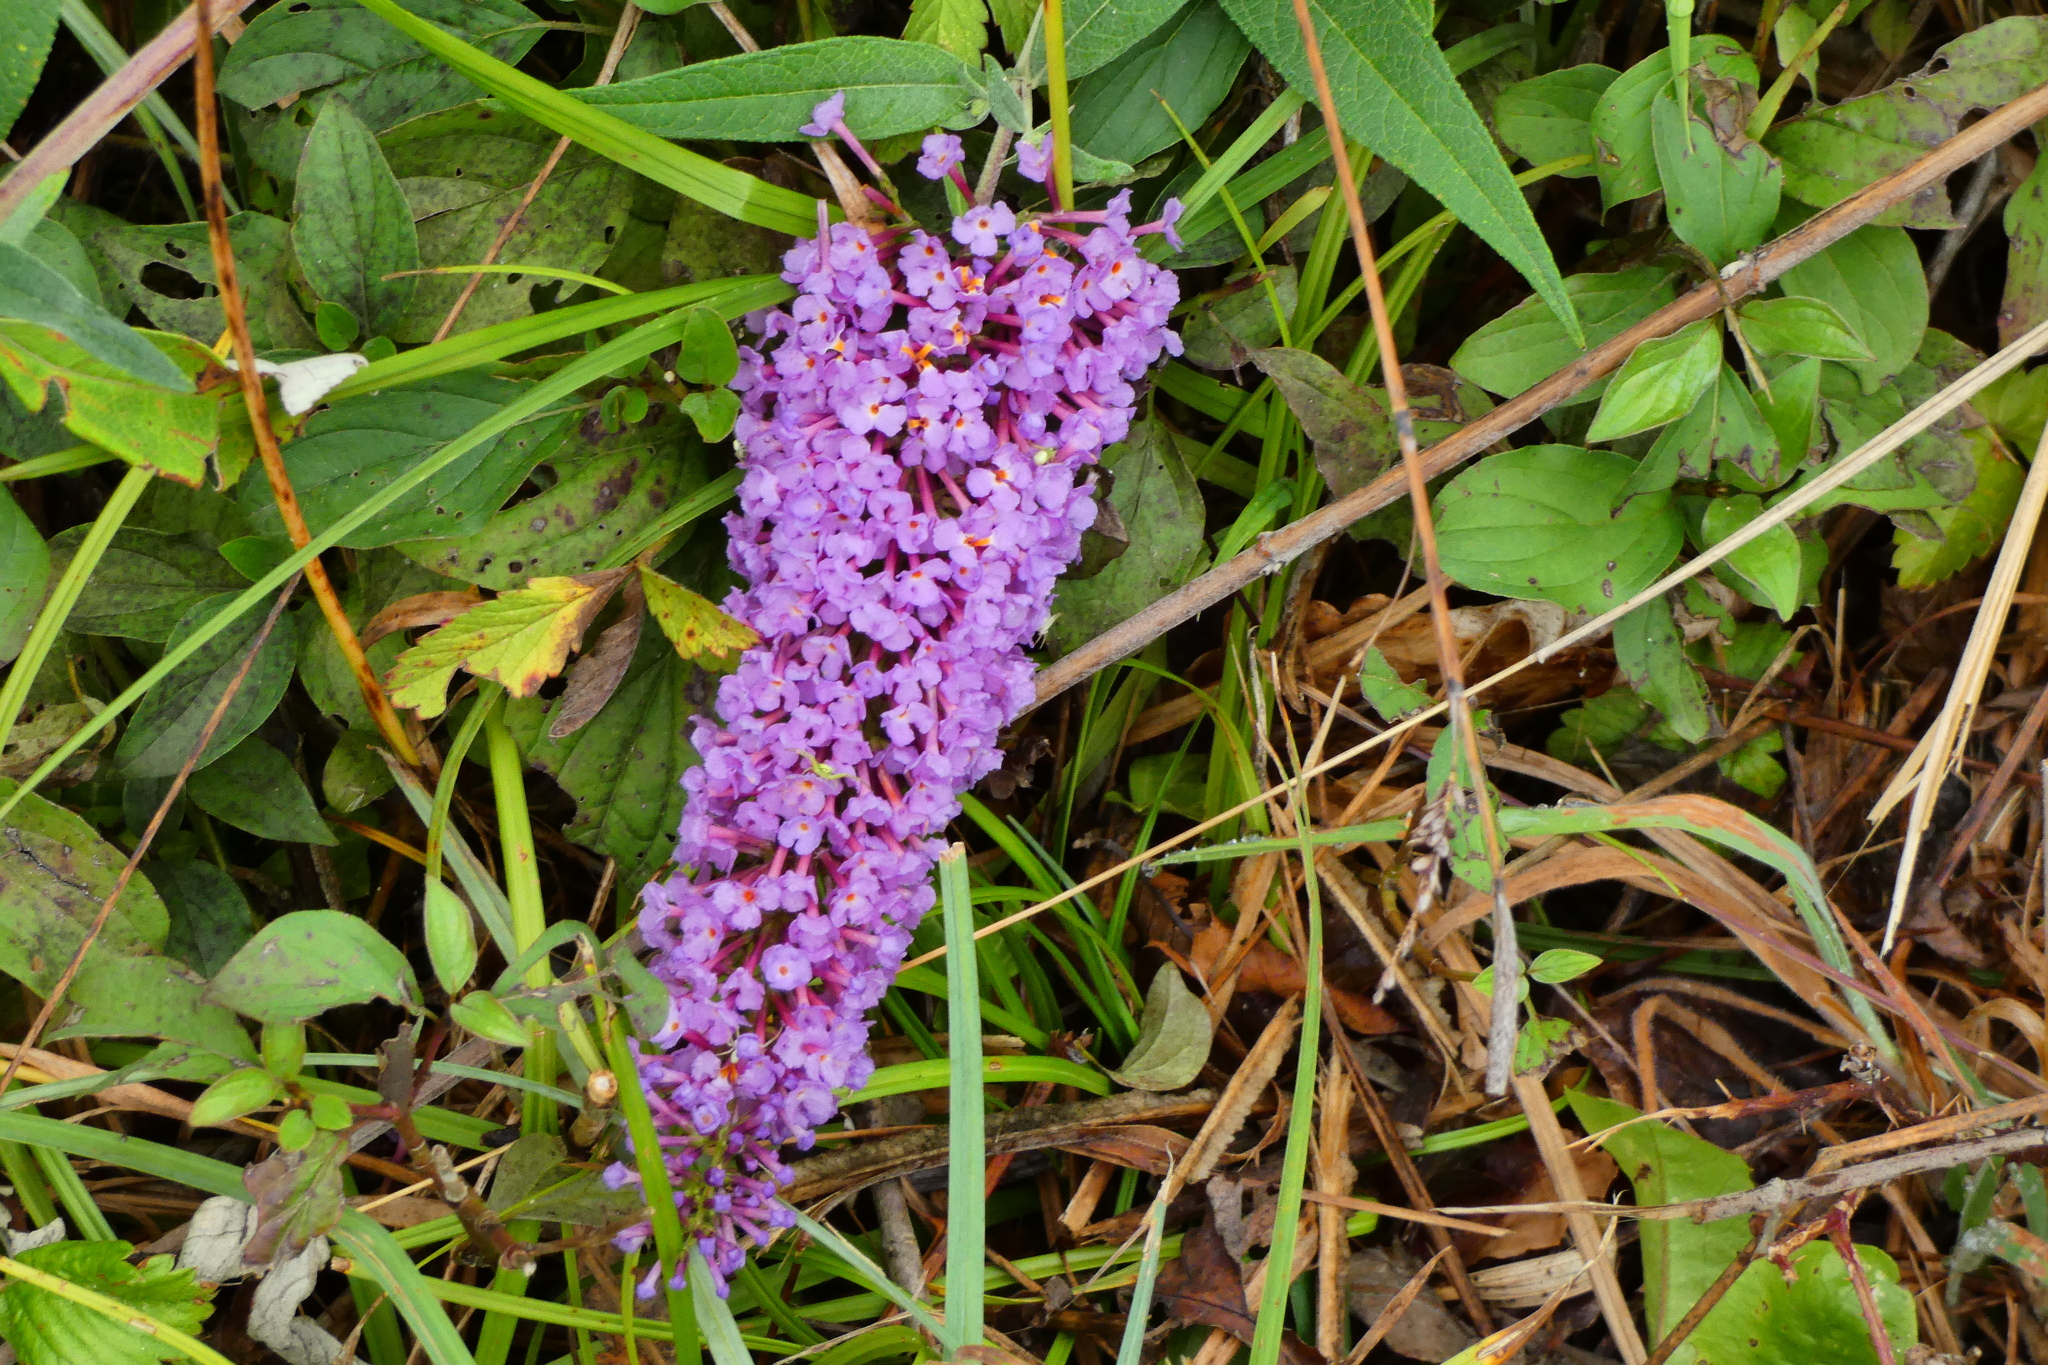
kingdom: Plantae
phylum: Tracheophyta
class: Magnoliopsida
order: Lamiales
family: Scrophulariaceae
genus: Buddleja
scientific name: Buddleja davidii
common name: Butterfly-bush
